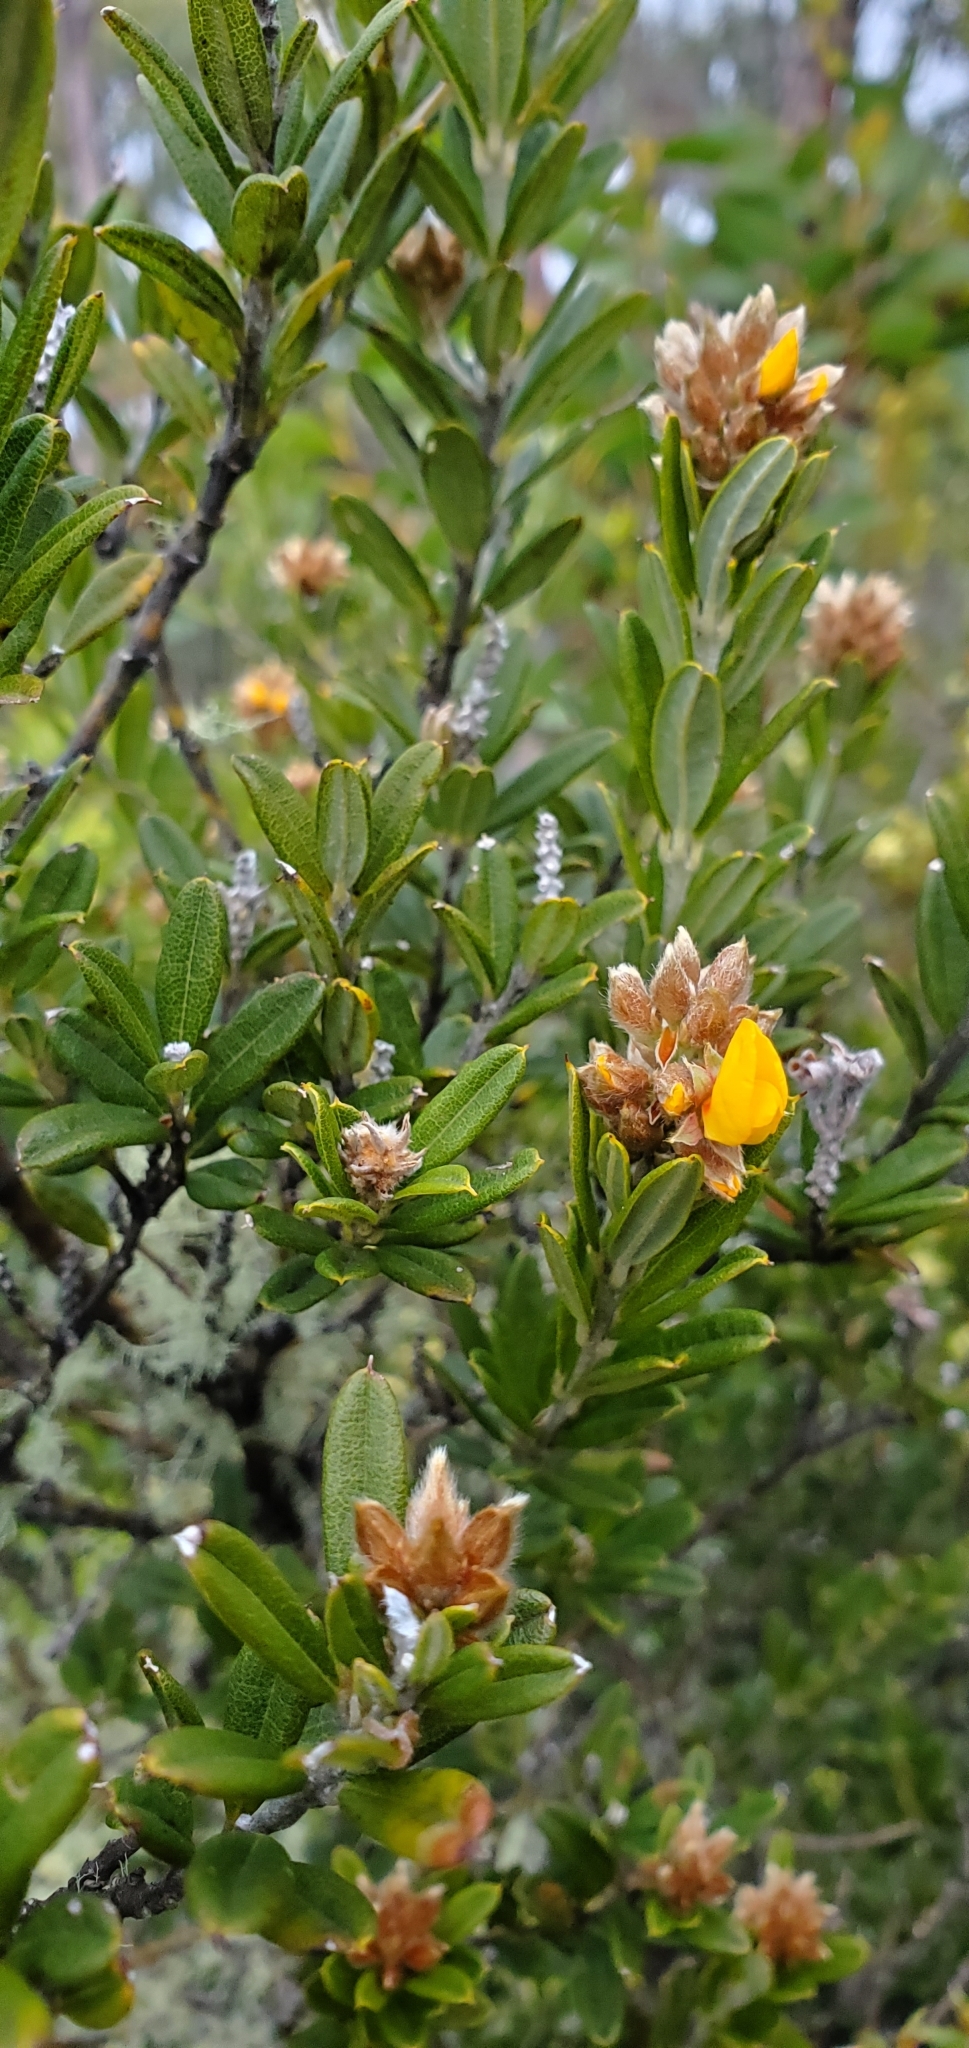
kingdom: Plantae
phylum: Tracheophyta
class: Magnoliopsida
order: Fabales
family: Fabaceae
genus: Oxylobium
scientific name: Oxylobium ellipticum
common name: Golden shaggy-pea
